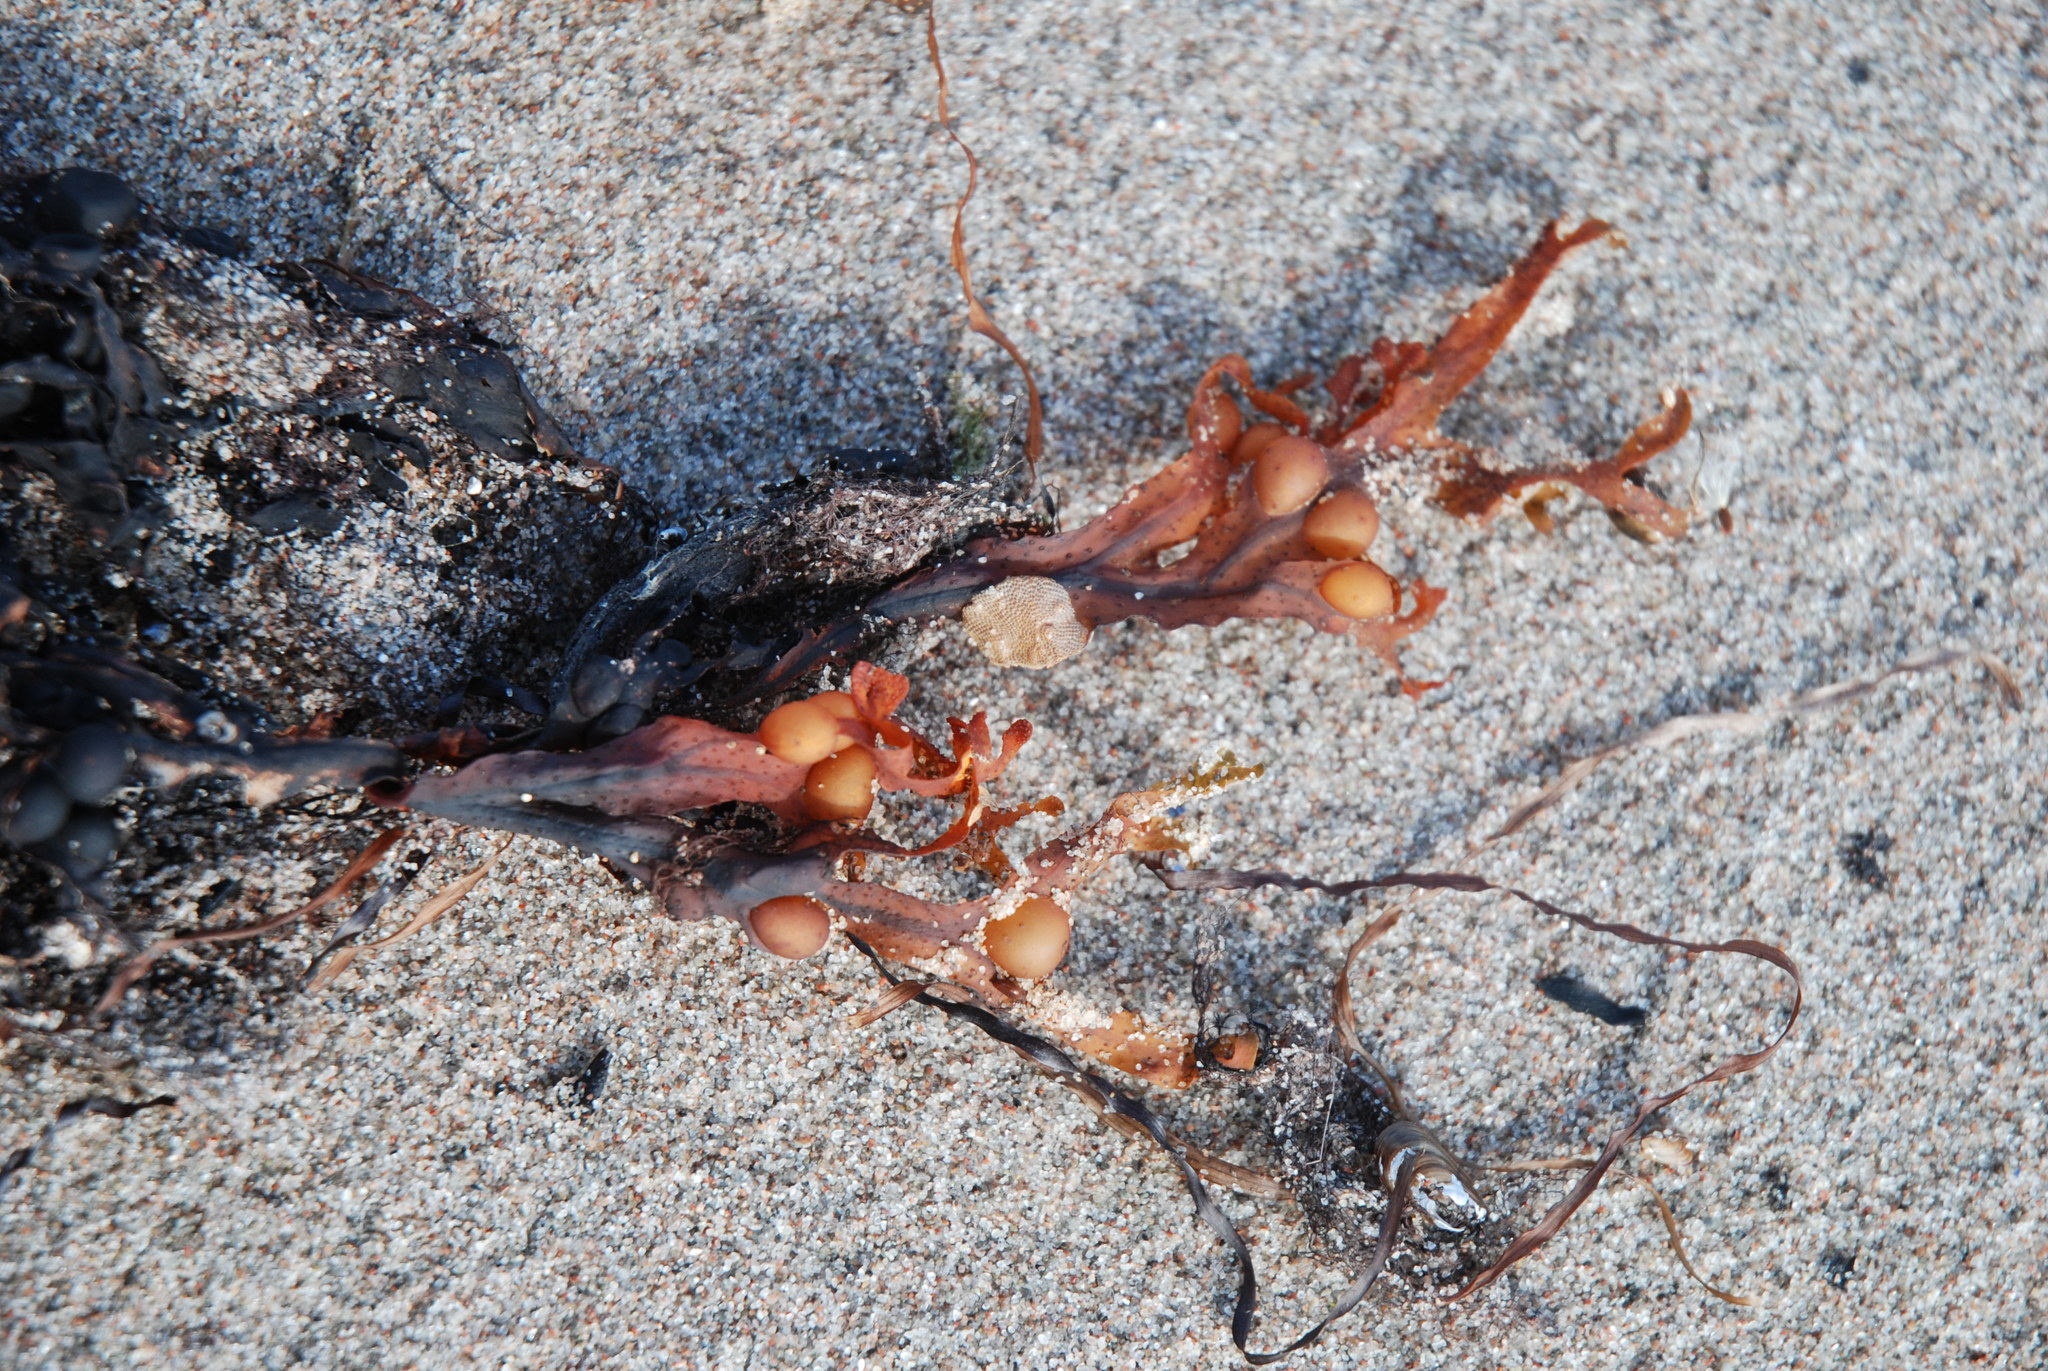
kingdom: Chromista
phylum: Ochrophyta
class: Phaeophyceae
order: Fucales
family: Fucaceae
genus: Fucus
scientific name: Fucus vesiculosus
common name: Bladder wrack
